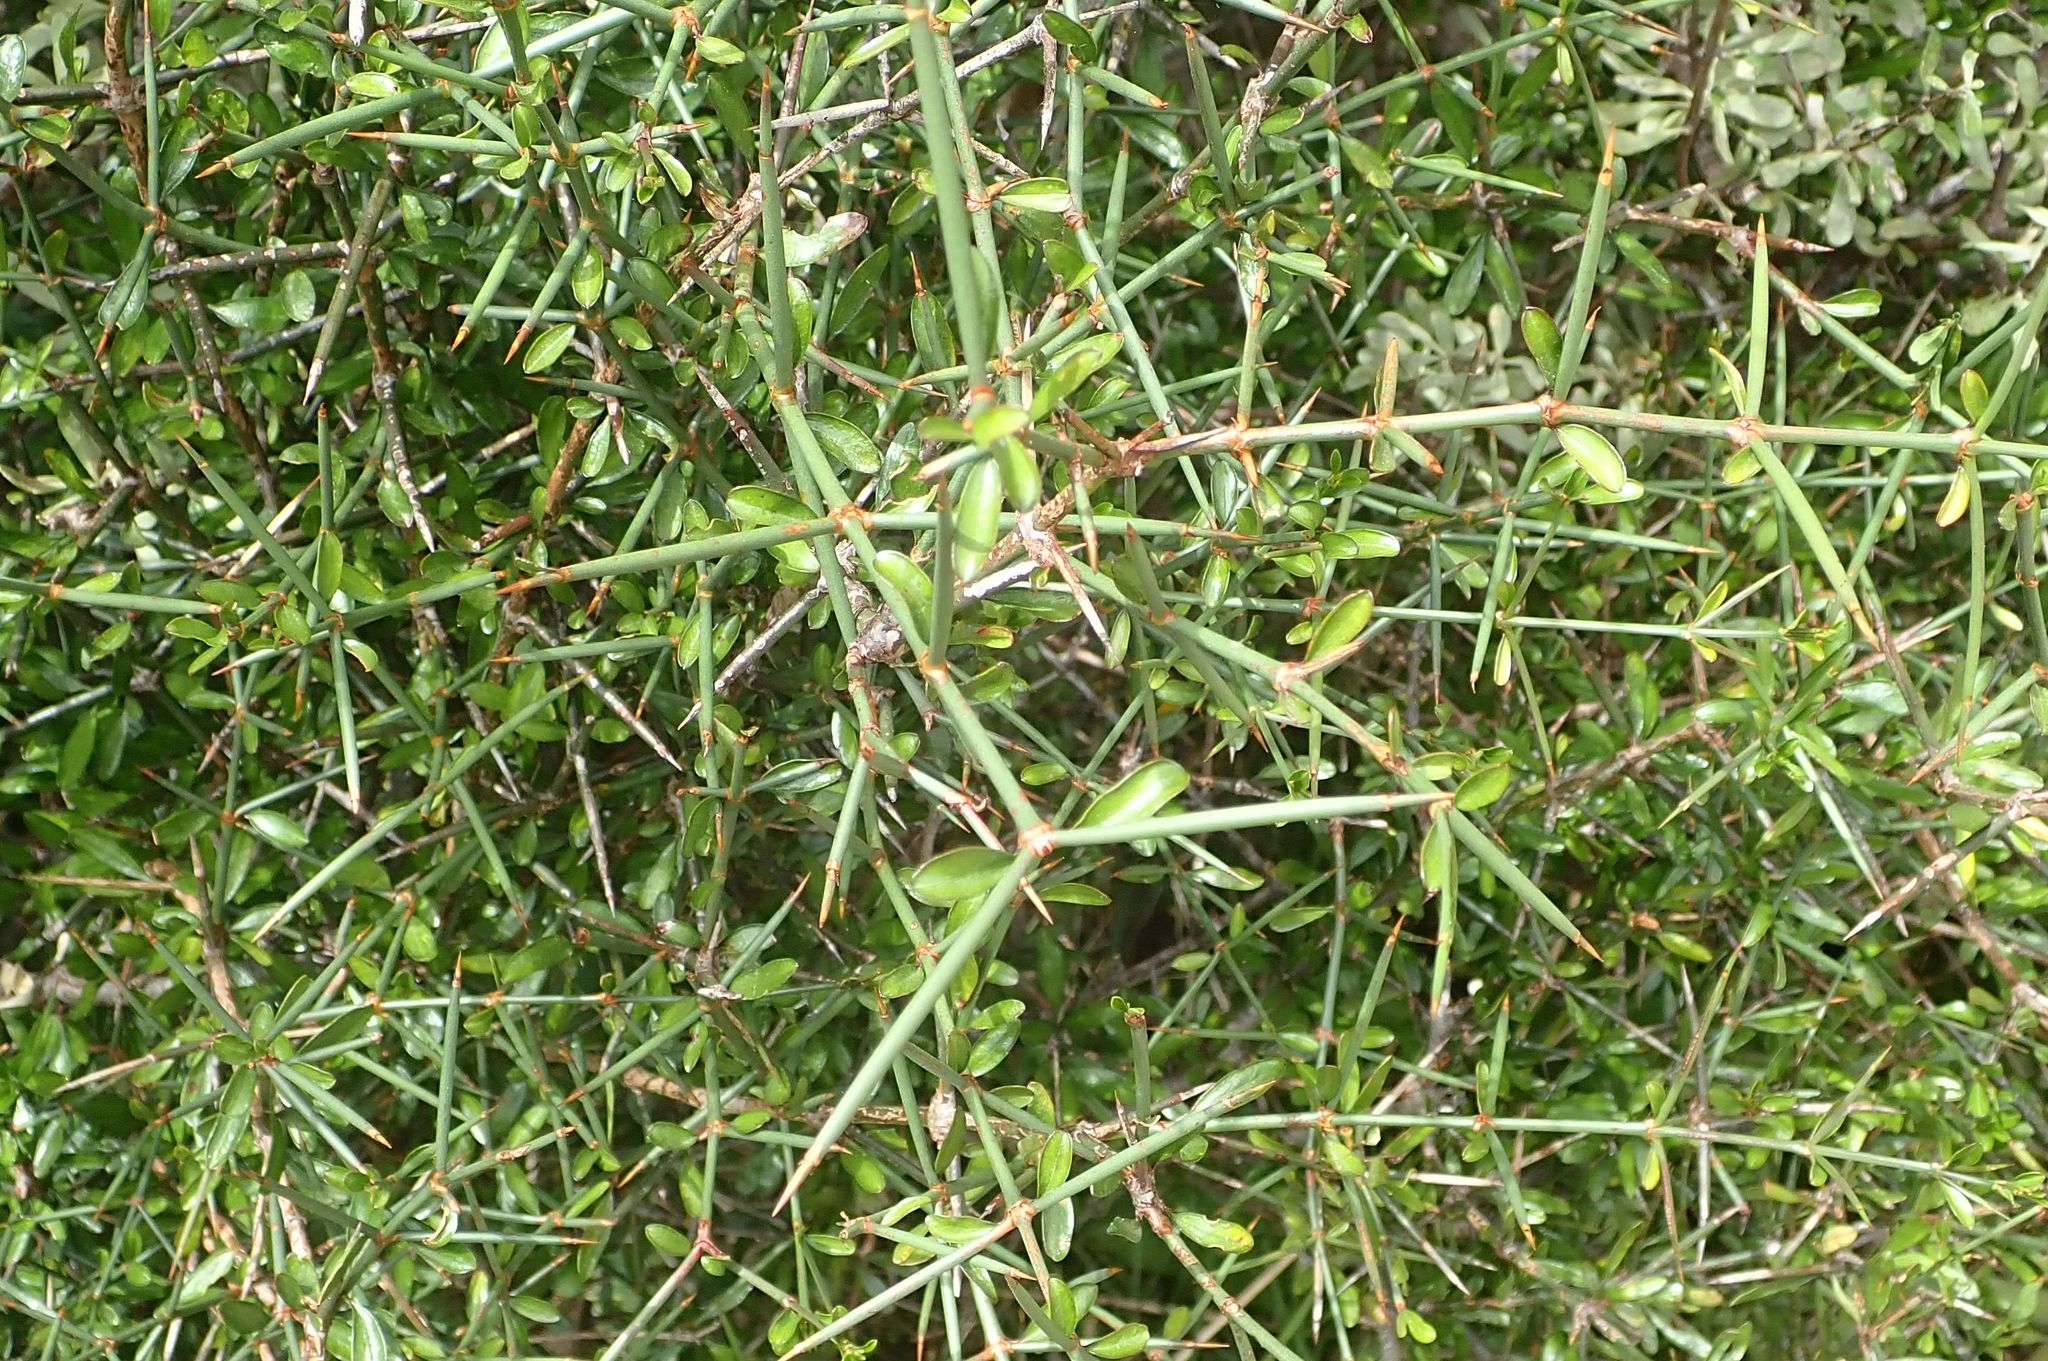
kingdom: Plantae
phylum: Tracheophyta
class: Magnoliopsida
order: Rosales
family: Rhamnaceae
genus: Discaria
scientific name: Discaria toumatou
